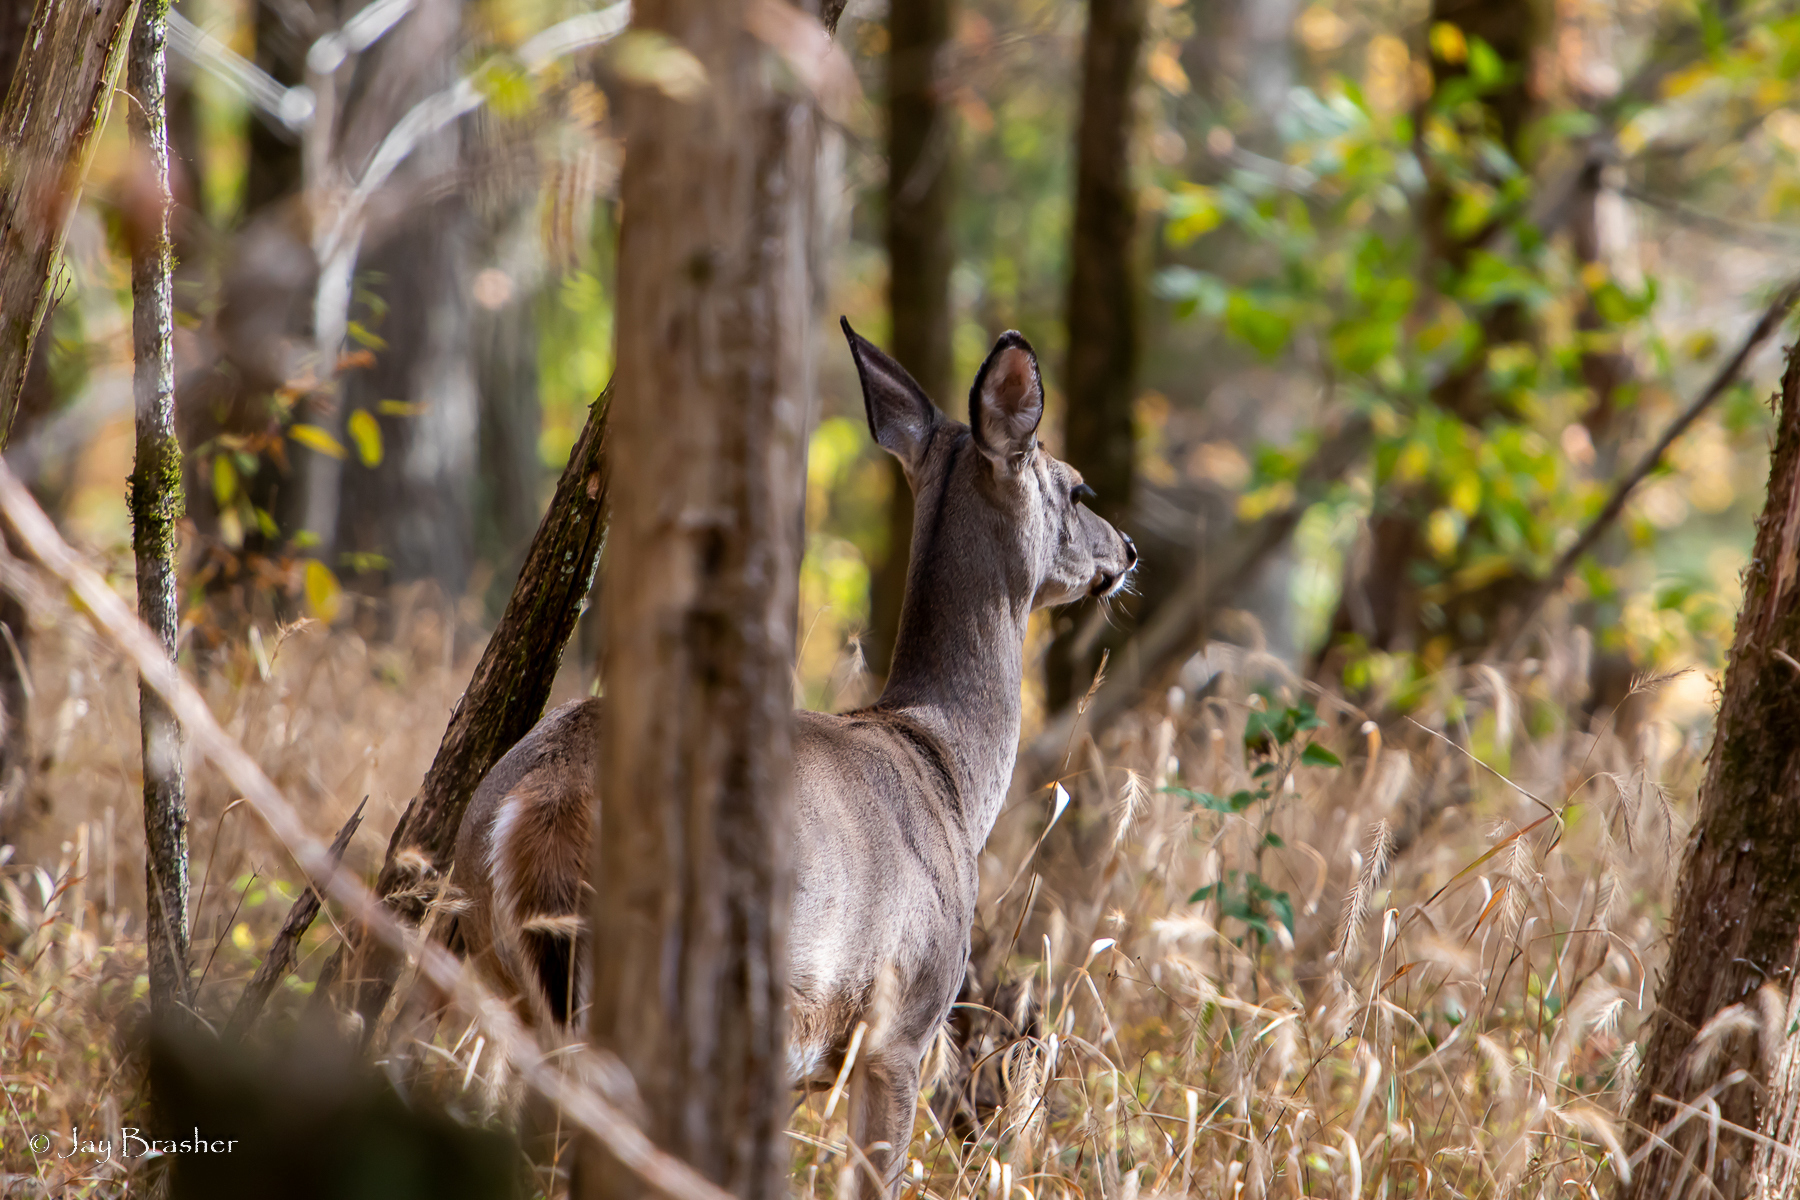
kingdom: Animalia
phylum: Chordata
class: Mammalia
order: Artiodactyla
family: Cervidae
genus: Odocoileus
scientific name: Odocoileus virginianus
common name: White-tailed deer
